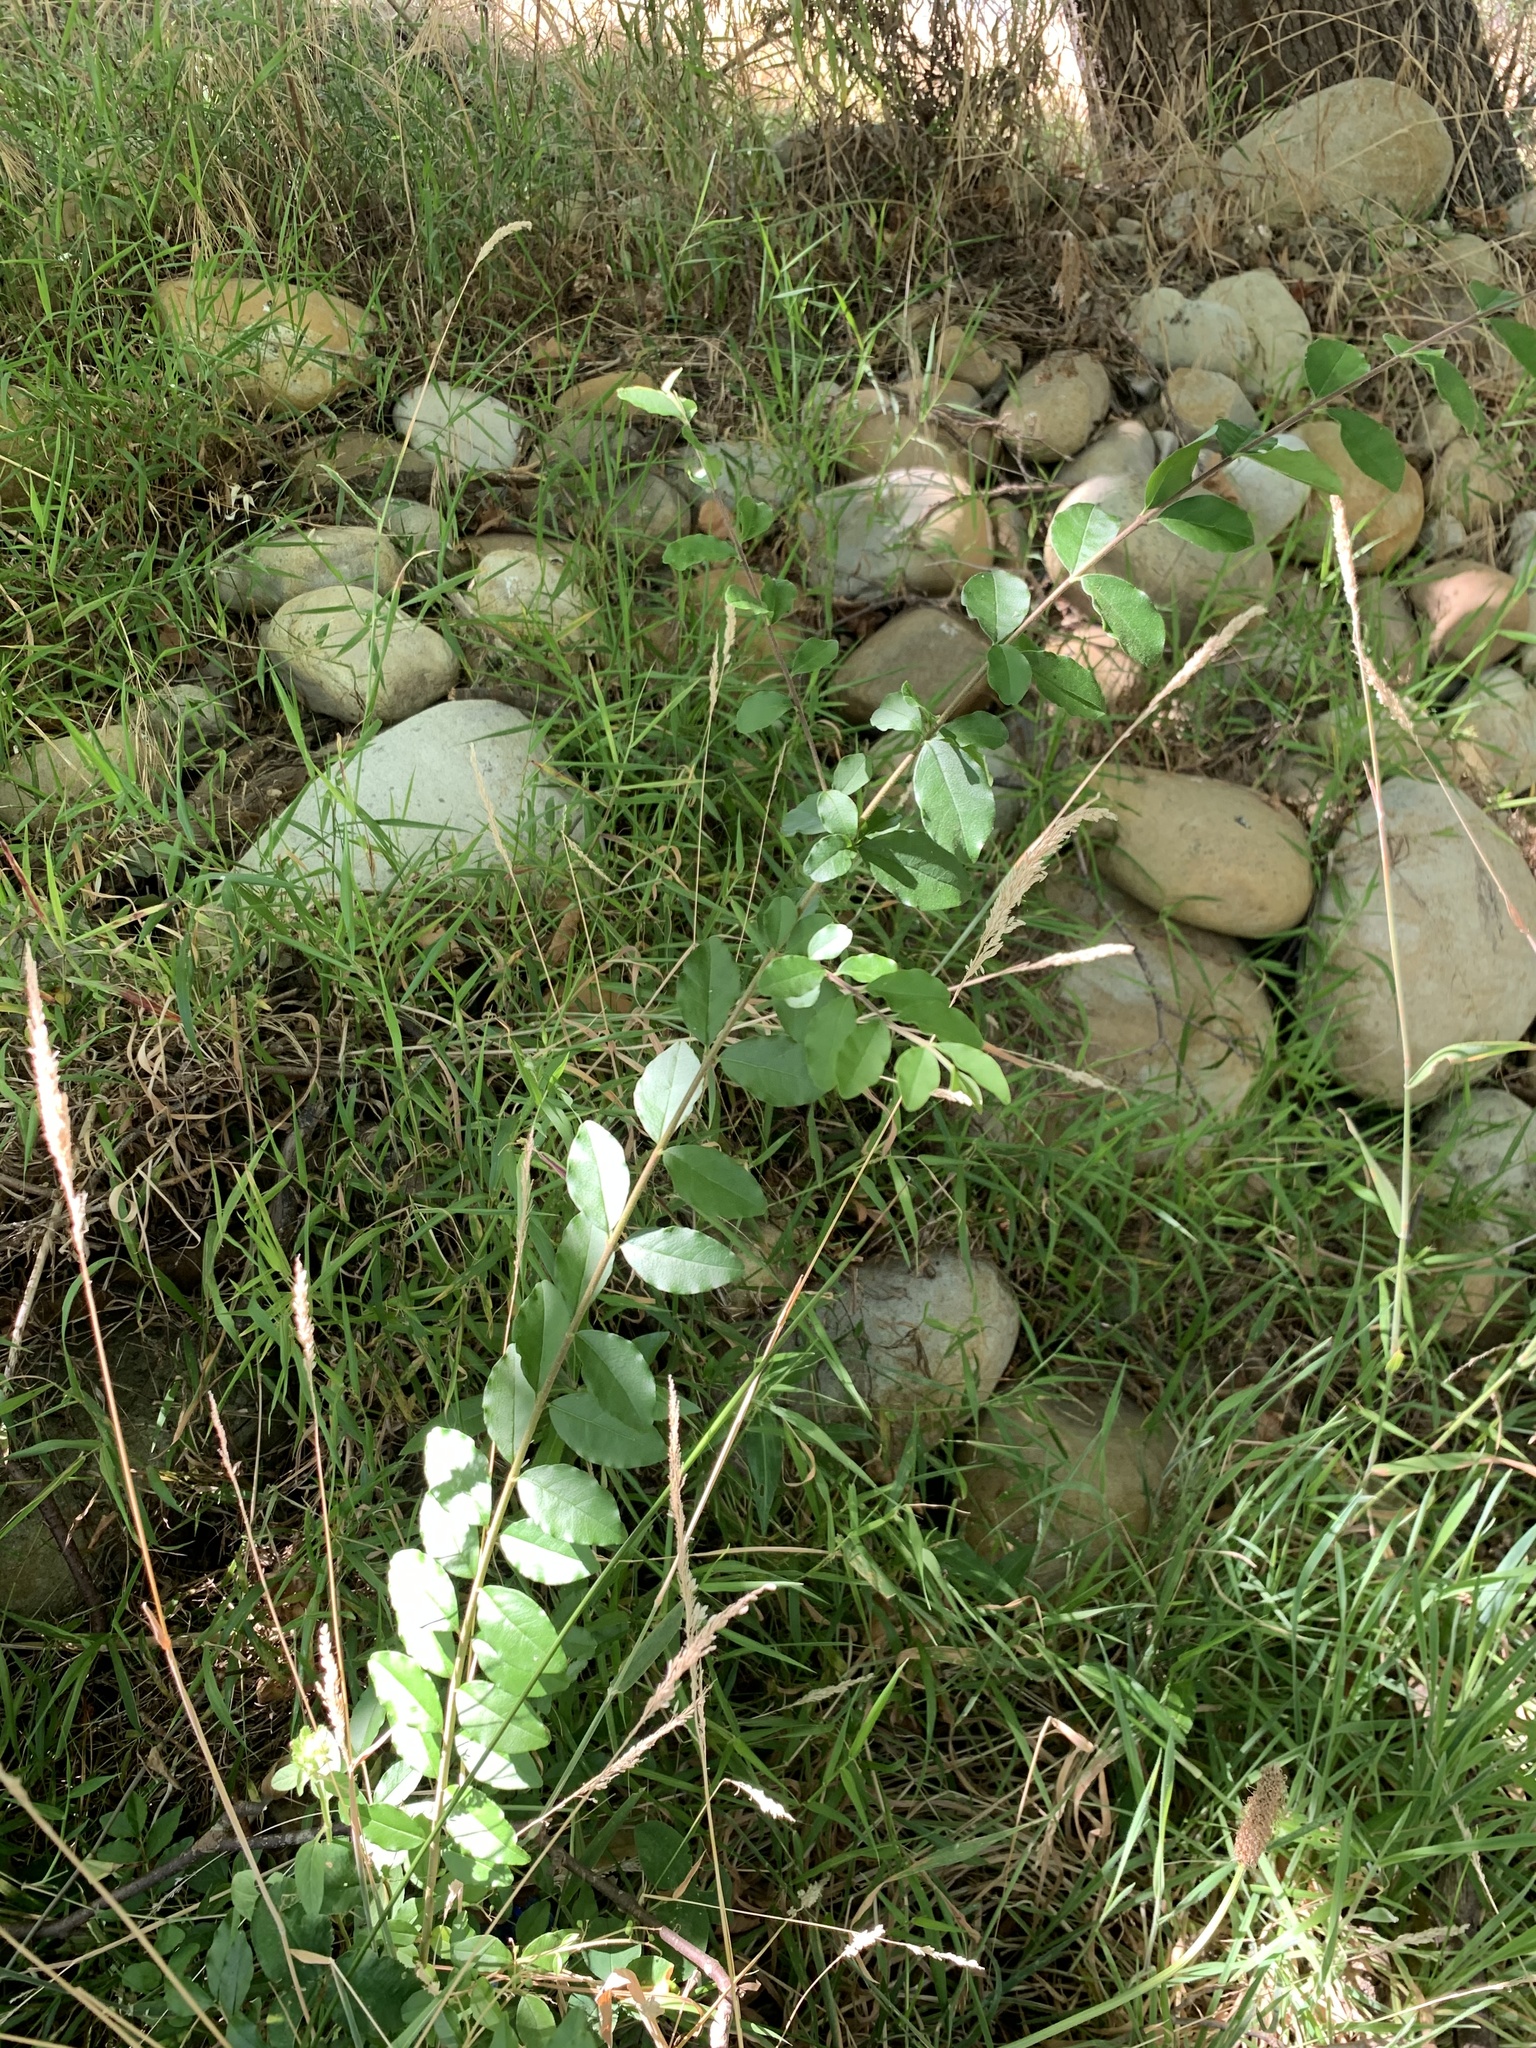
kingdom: Plantae
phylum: Tracheophyta
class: Magnoliopsida
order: Lamiales
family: Oleaceae
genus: Ligustrum
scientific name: Ligustrum sinense
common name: Chinese privet
